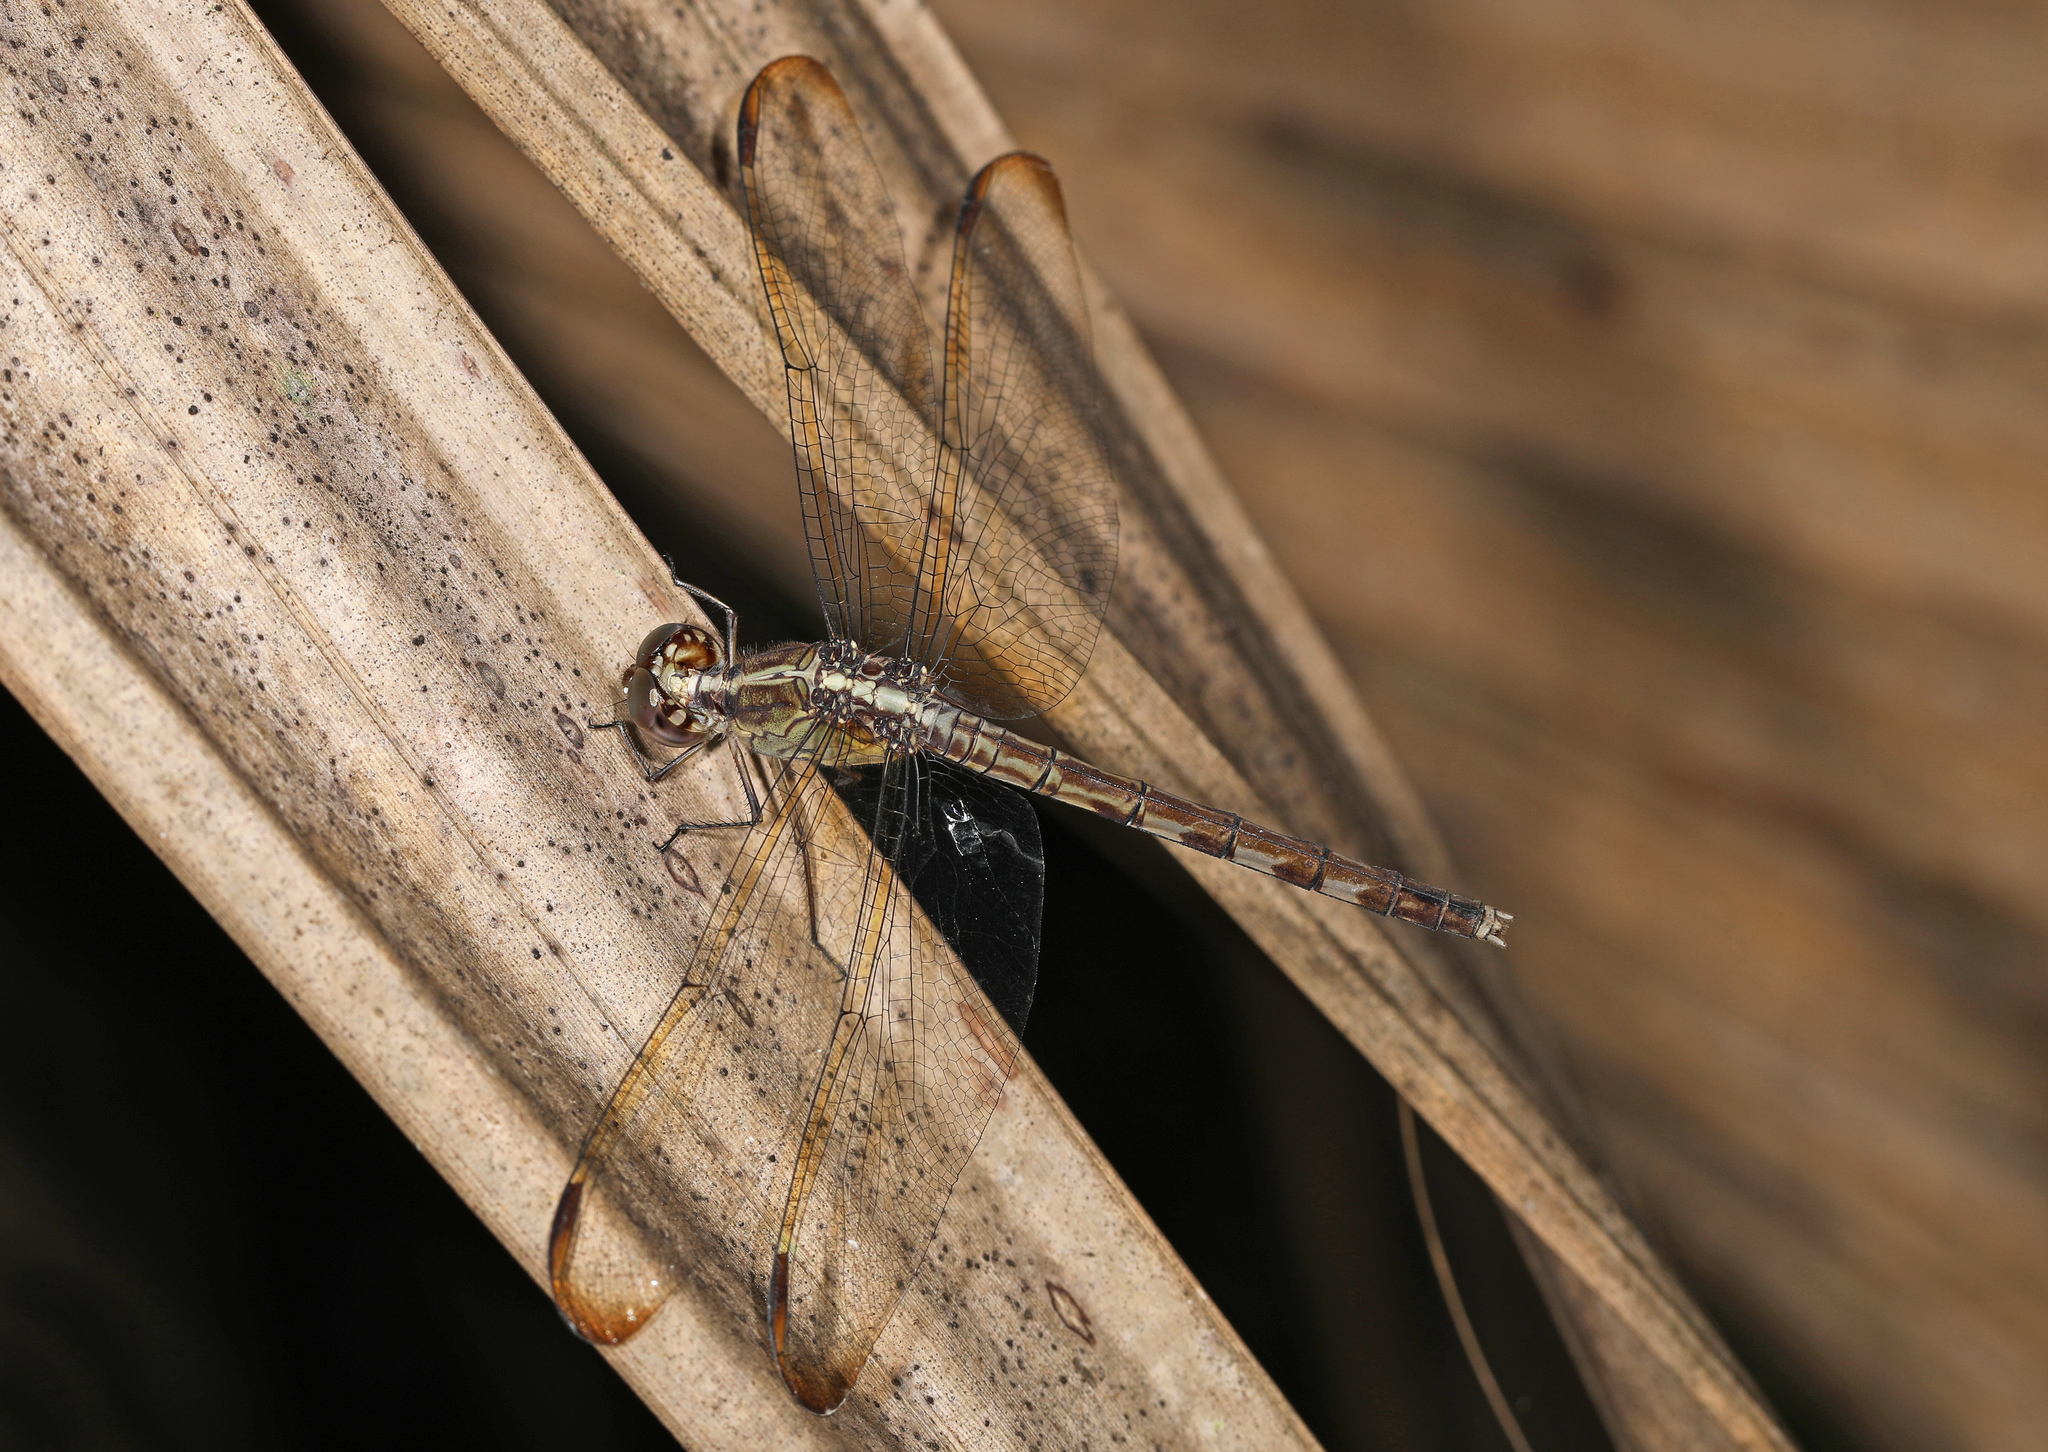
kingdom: Animalia
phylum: Arthropoda
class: Insecta
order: Odonata
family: Libellulidae
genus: Erythrodiplax
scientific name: Erythrodiplax umbrata
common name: Band-winged dragonlet
